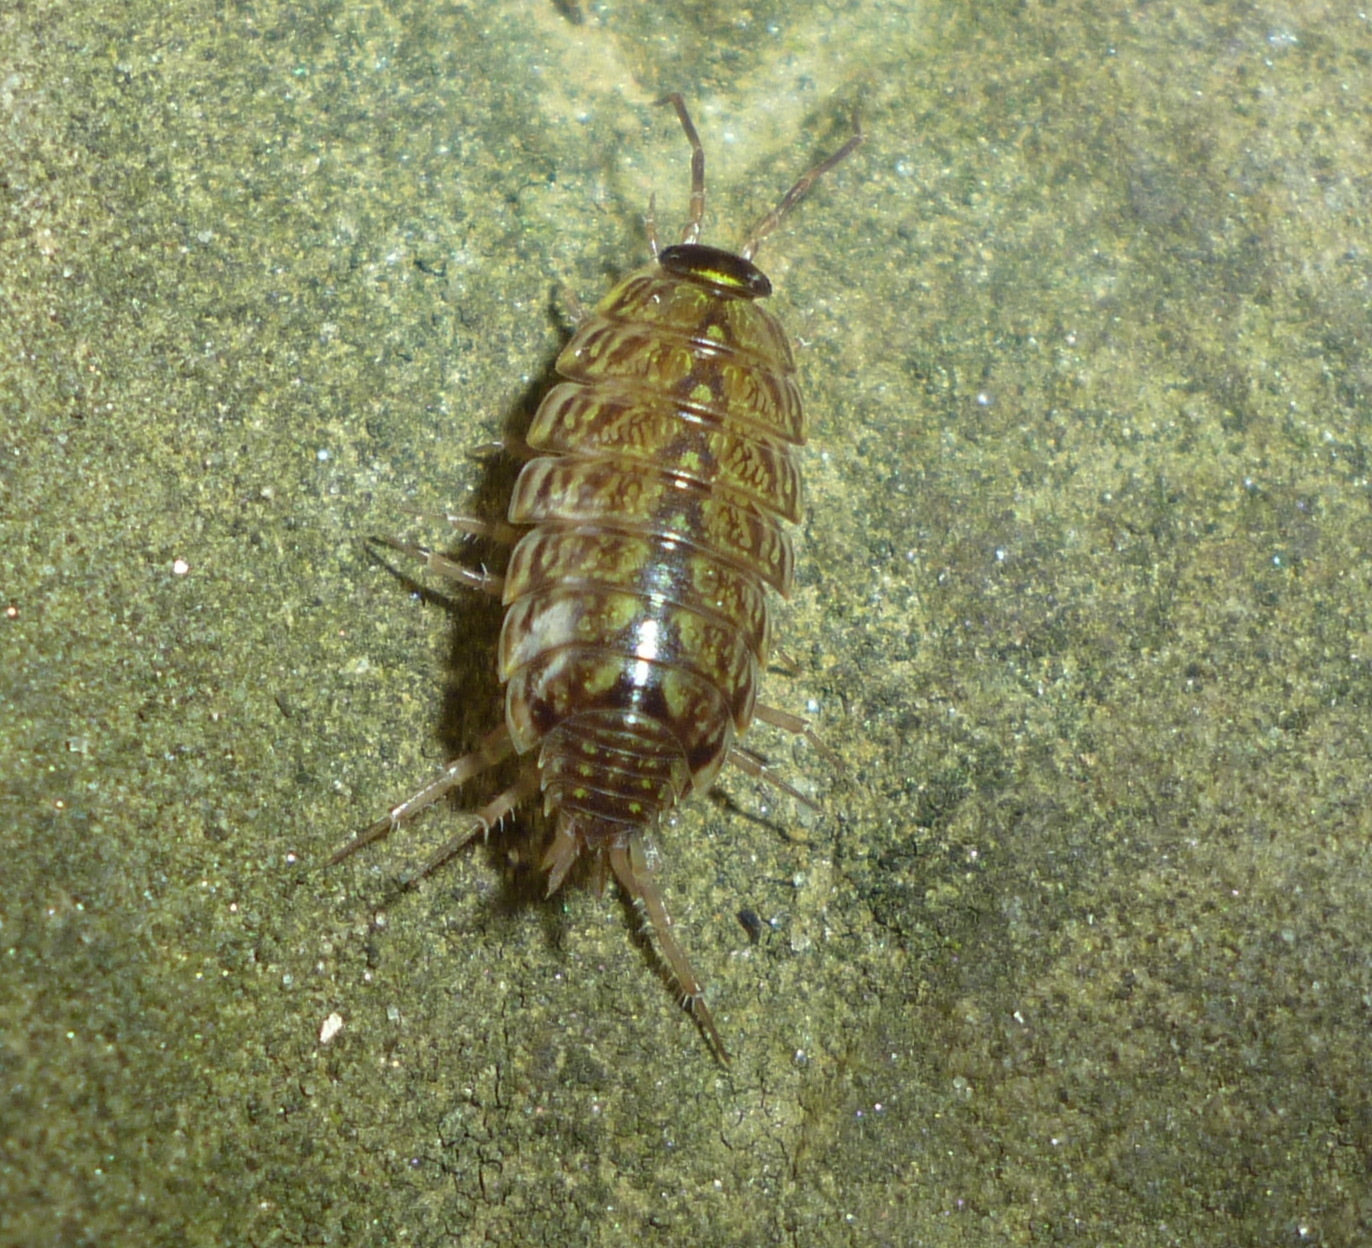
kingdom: Animalia
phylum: Arthropoda
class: Malacostraca
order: Isopoda
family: Philosciidae
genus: Philoscia
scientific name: Philoscia muscorum
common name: Common striped woodlouse
